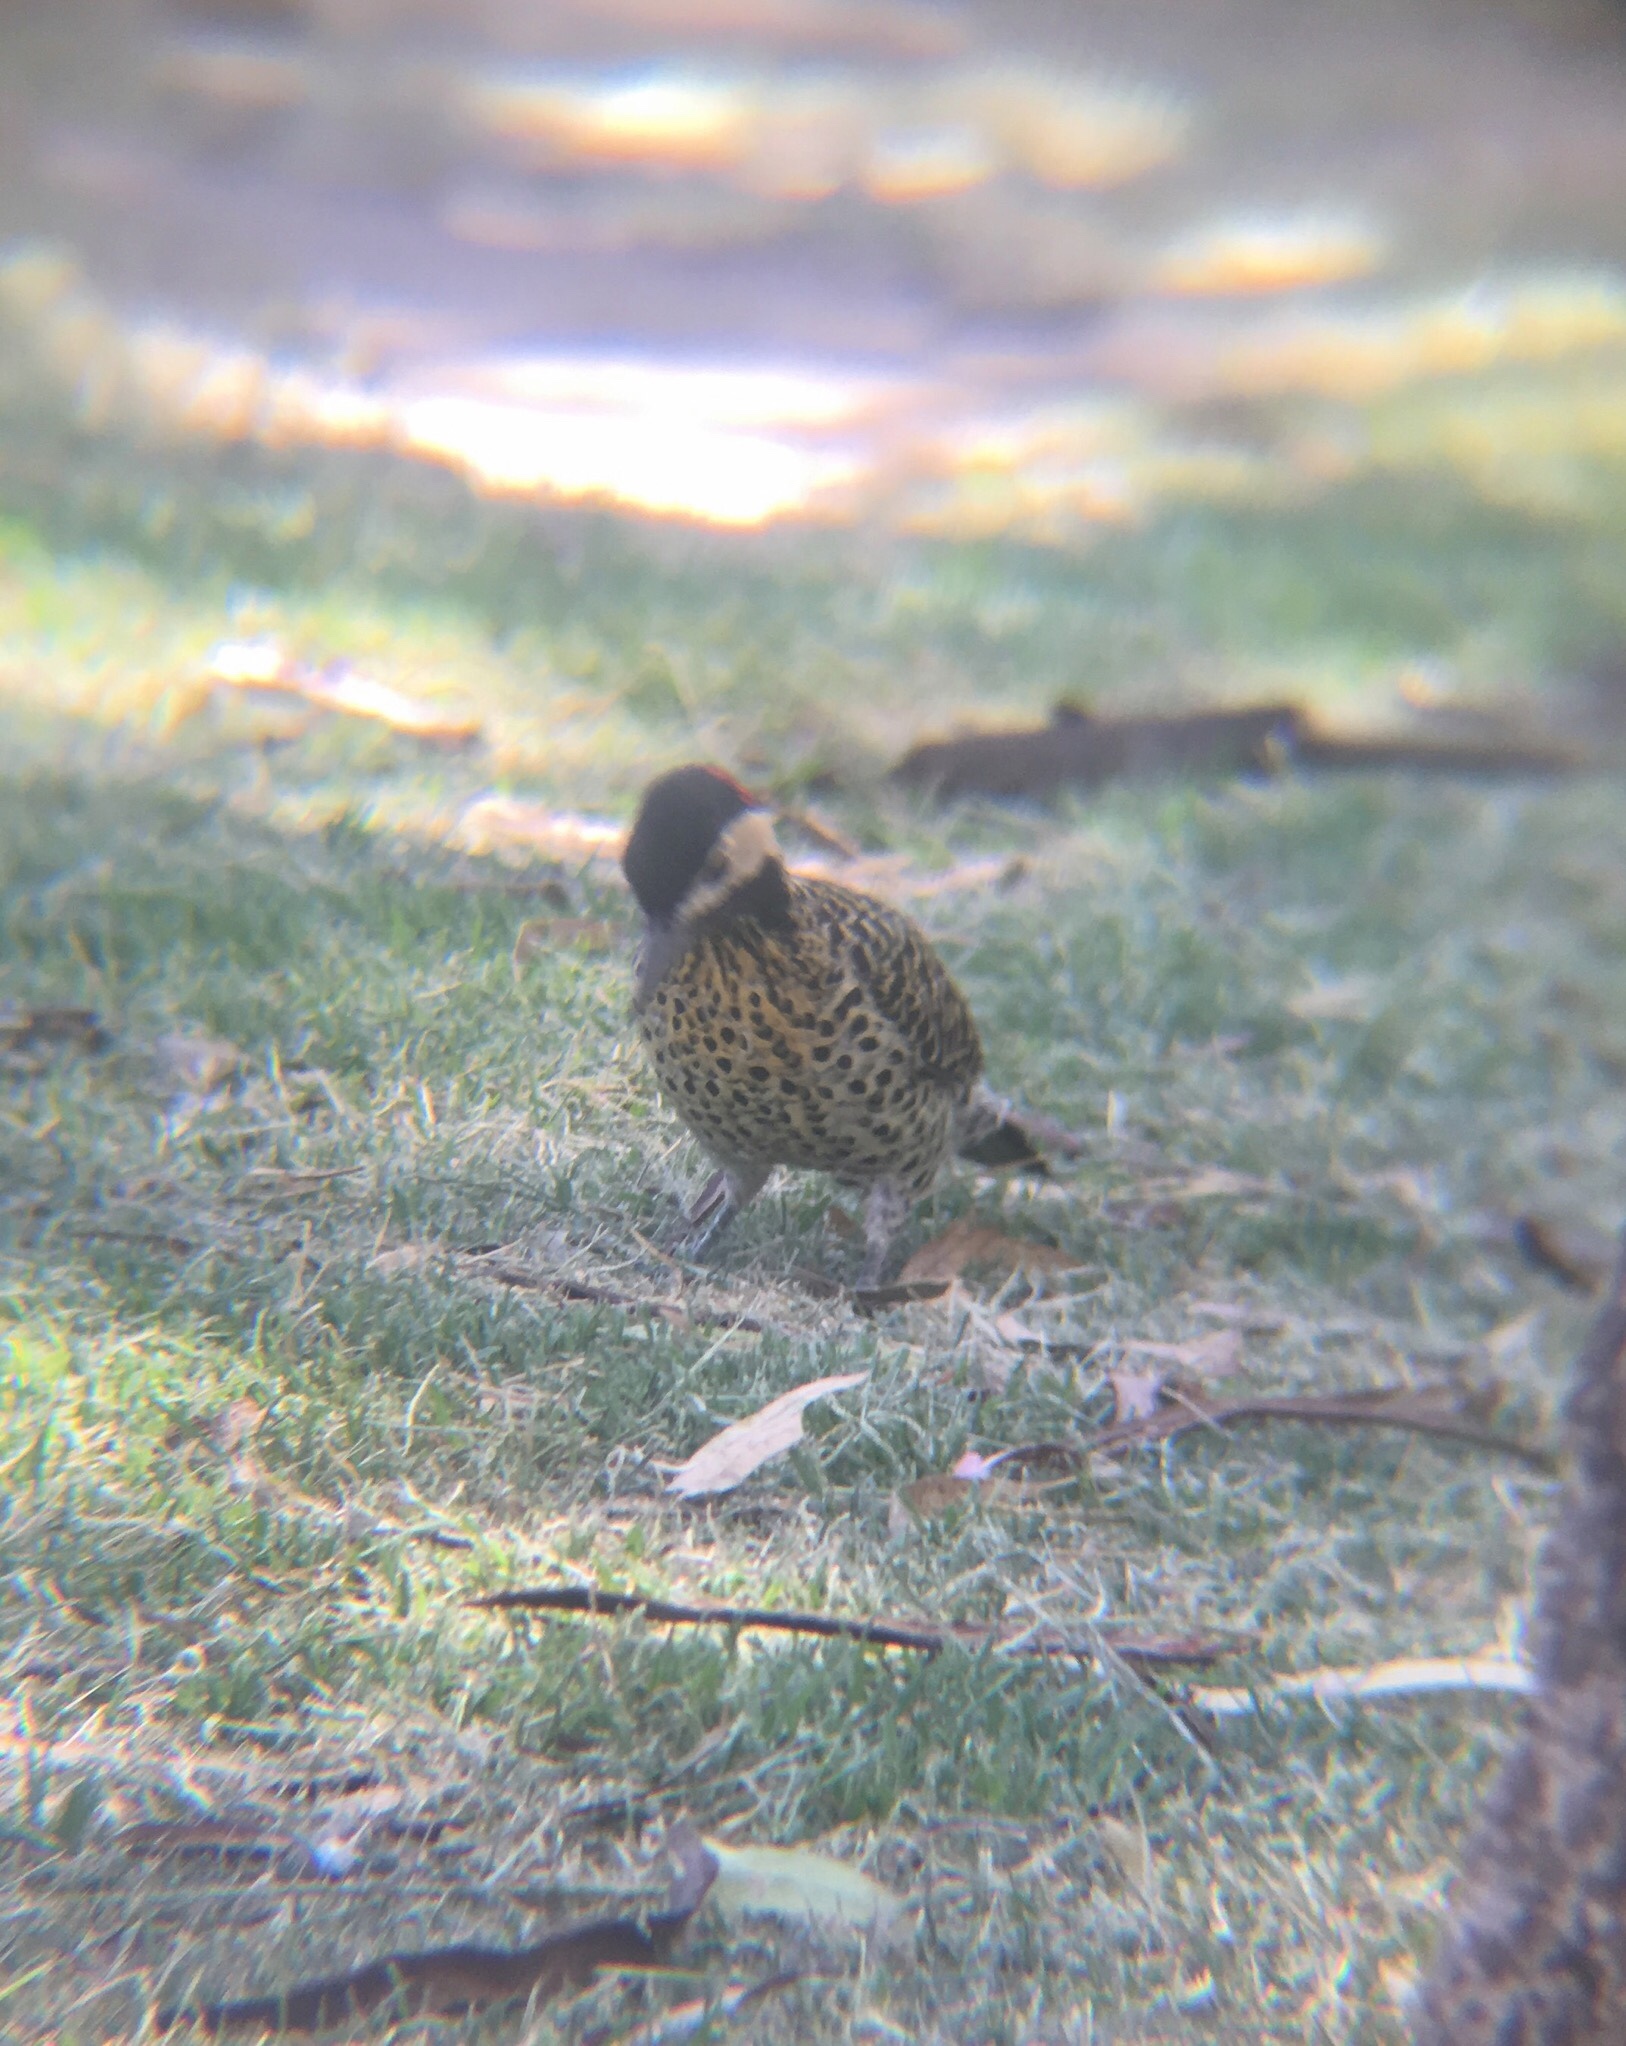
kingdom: Animalia
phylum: Chordata
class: Aves
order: Piciformes
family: Picidae
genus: Colaptes
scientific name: Colaptes melanochloros
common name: Green-barred woodpecker
